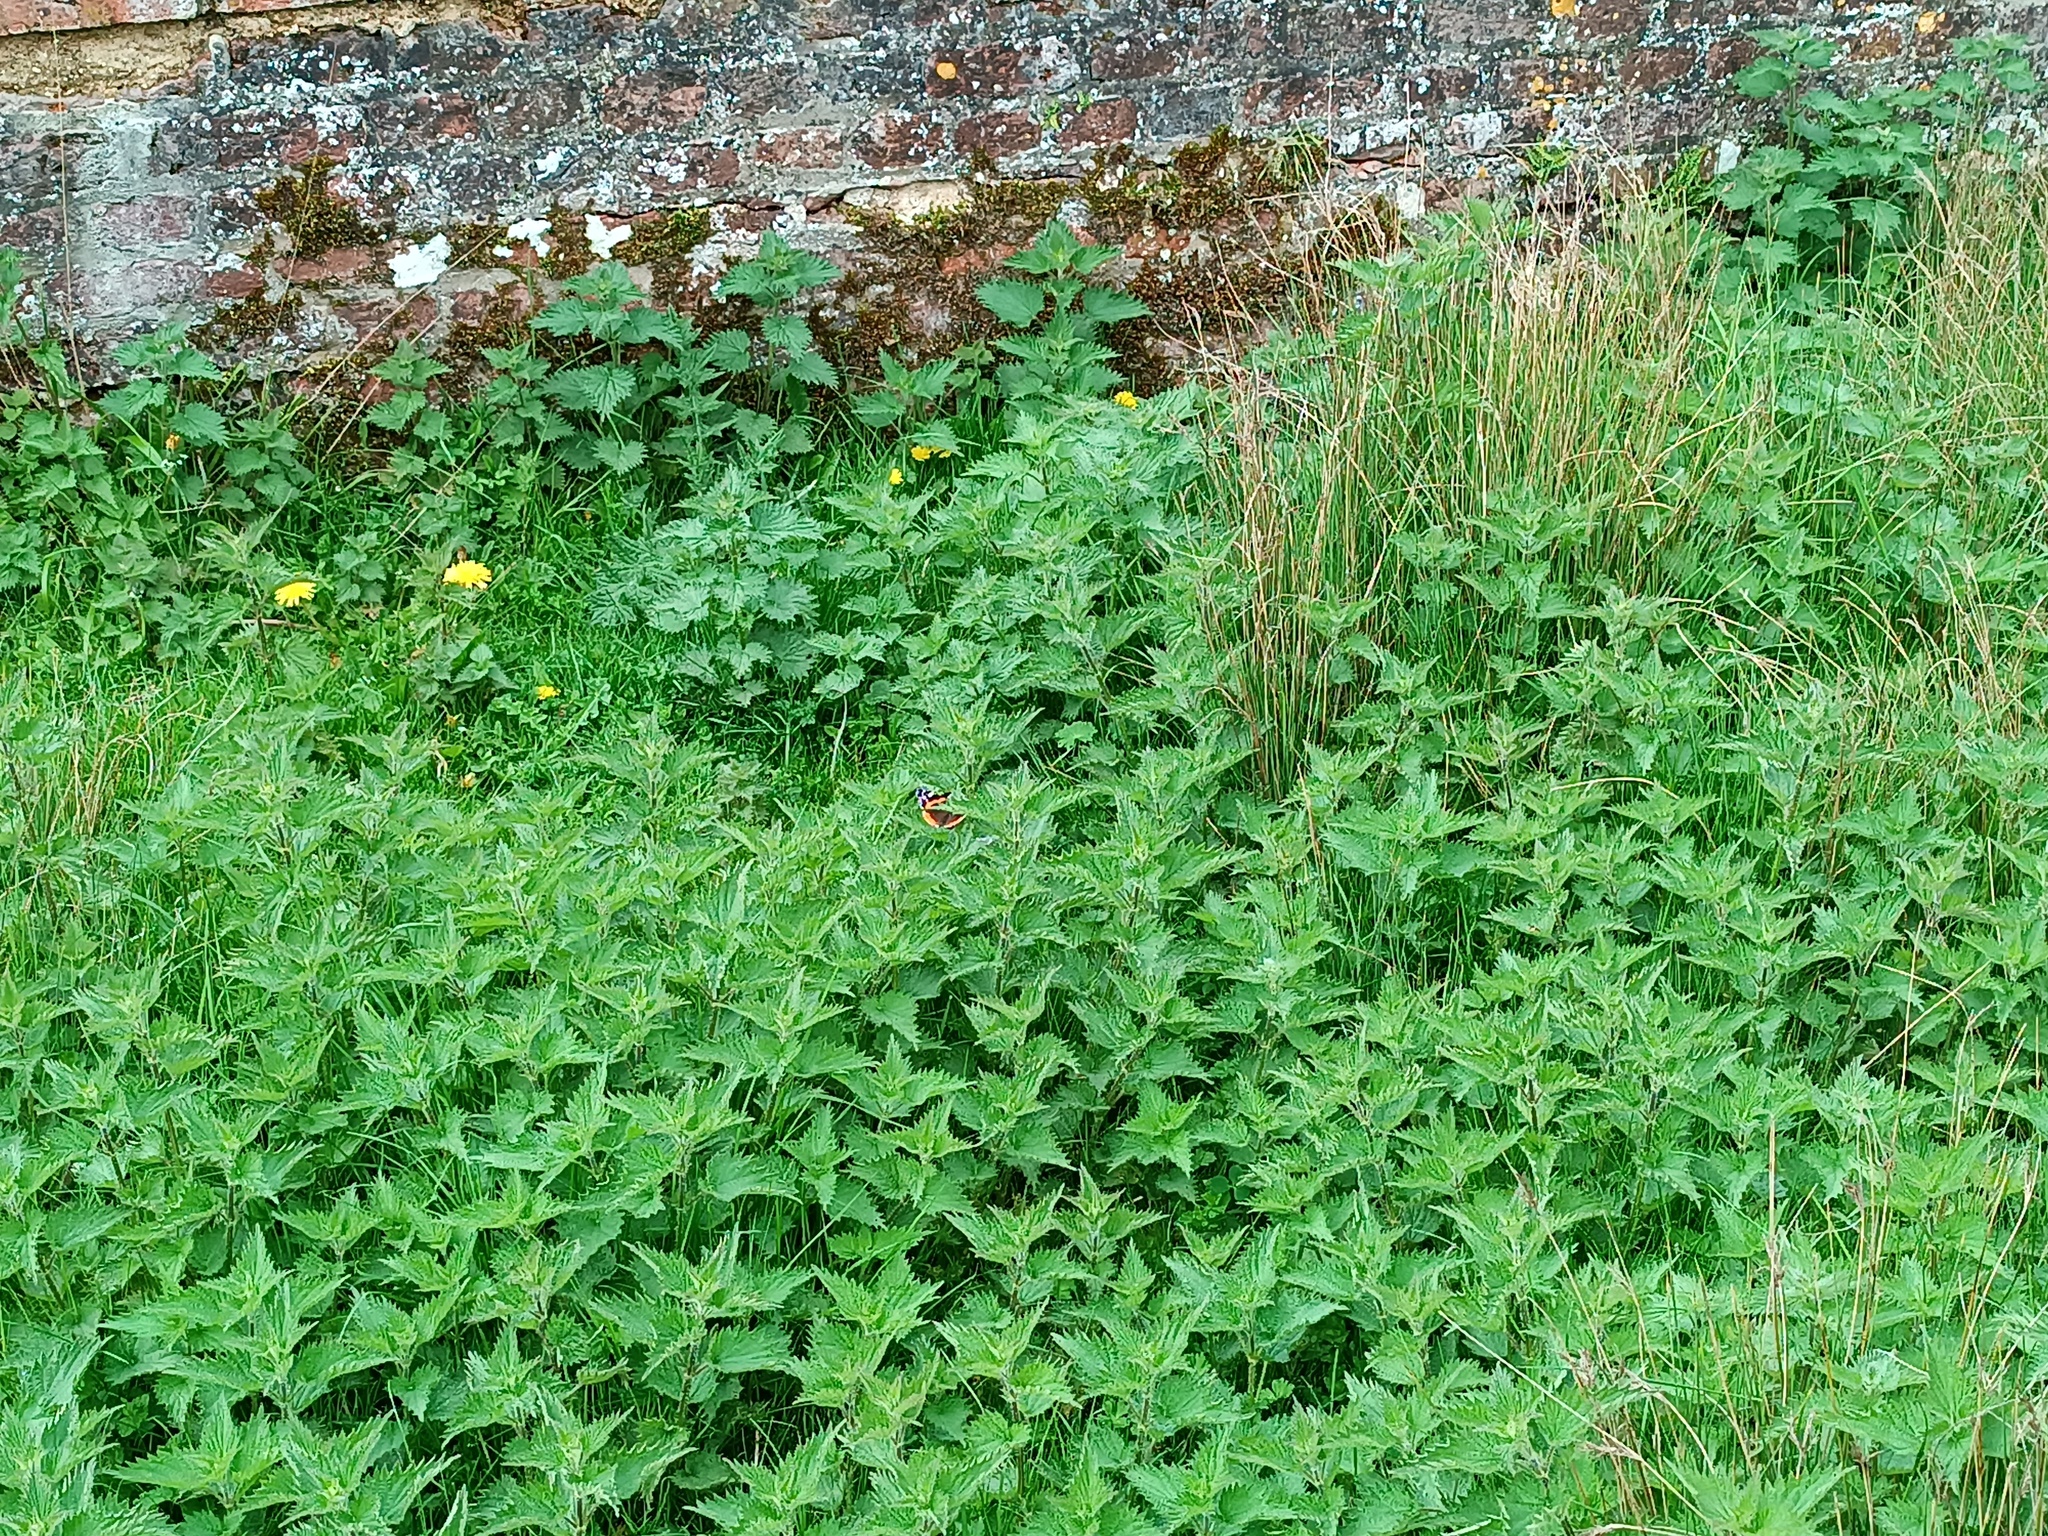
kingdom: Animalia
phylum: Arthropoda
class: Insecta
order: Lepidoptera
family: Nymphalidae
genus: Vanessa
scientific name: Vanessa atalanta
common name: Red admiral
